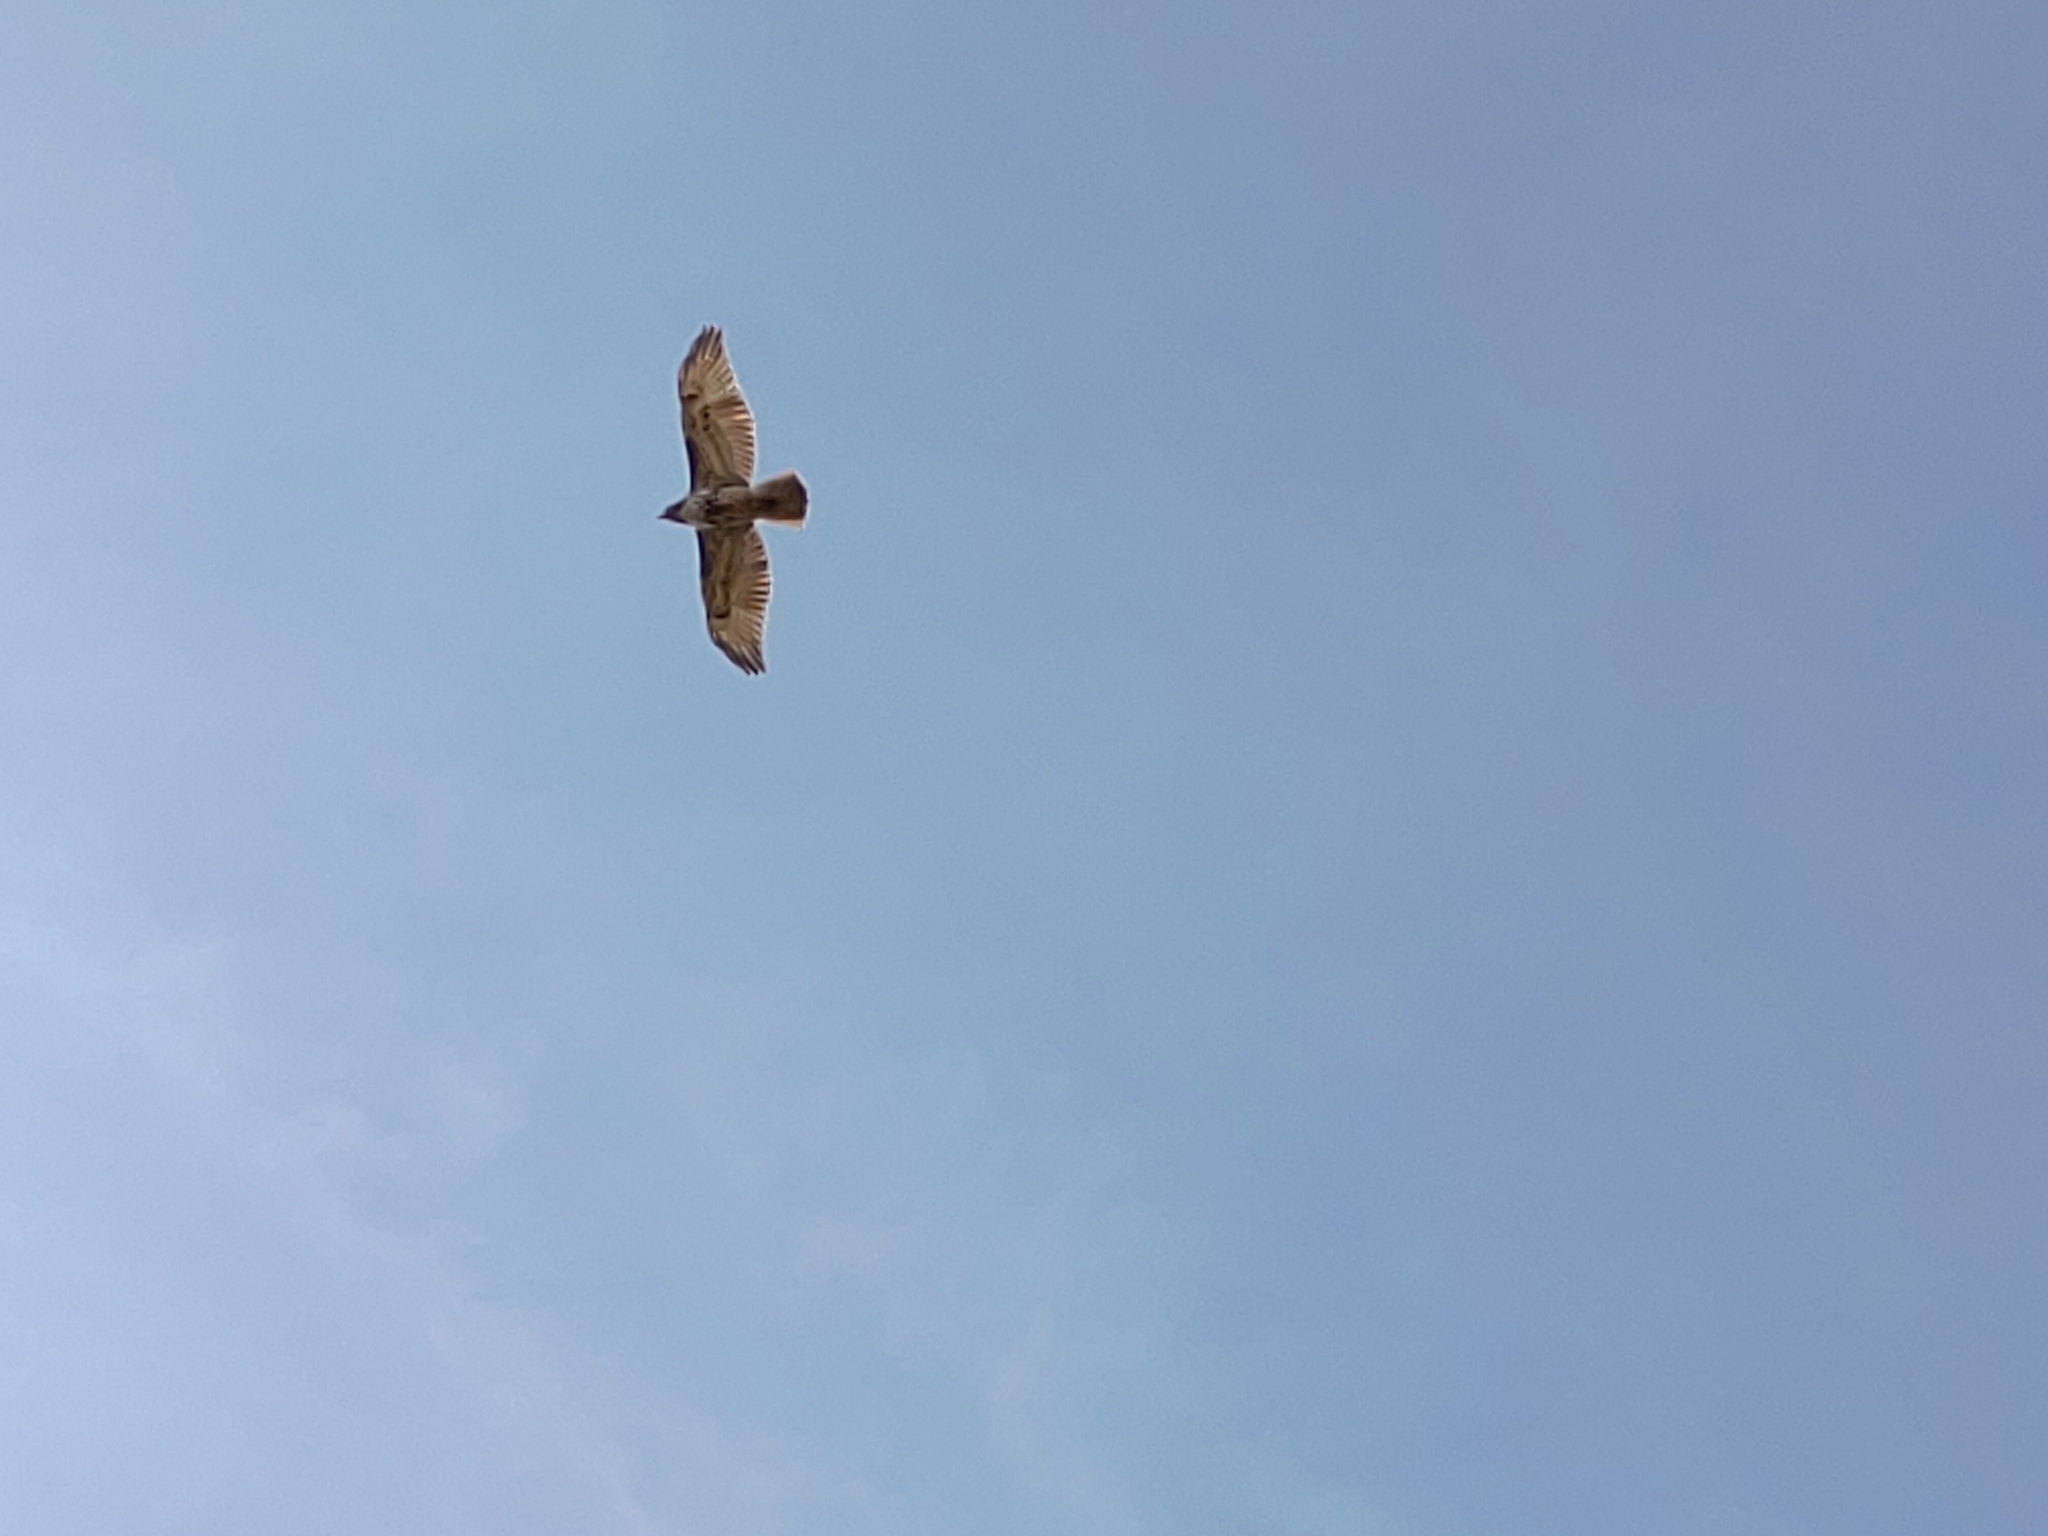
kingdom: Animalia
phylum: Chordata
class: Aves
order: Accipitriformes
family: Accipitridae
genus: Buteo
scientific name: Buteo jamaicensis
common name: Red-tailed hawk
